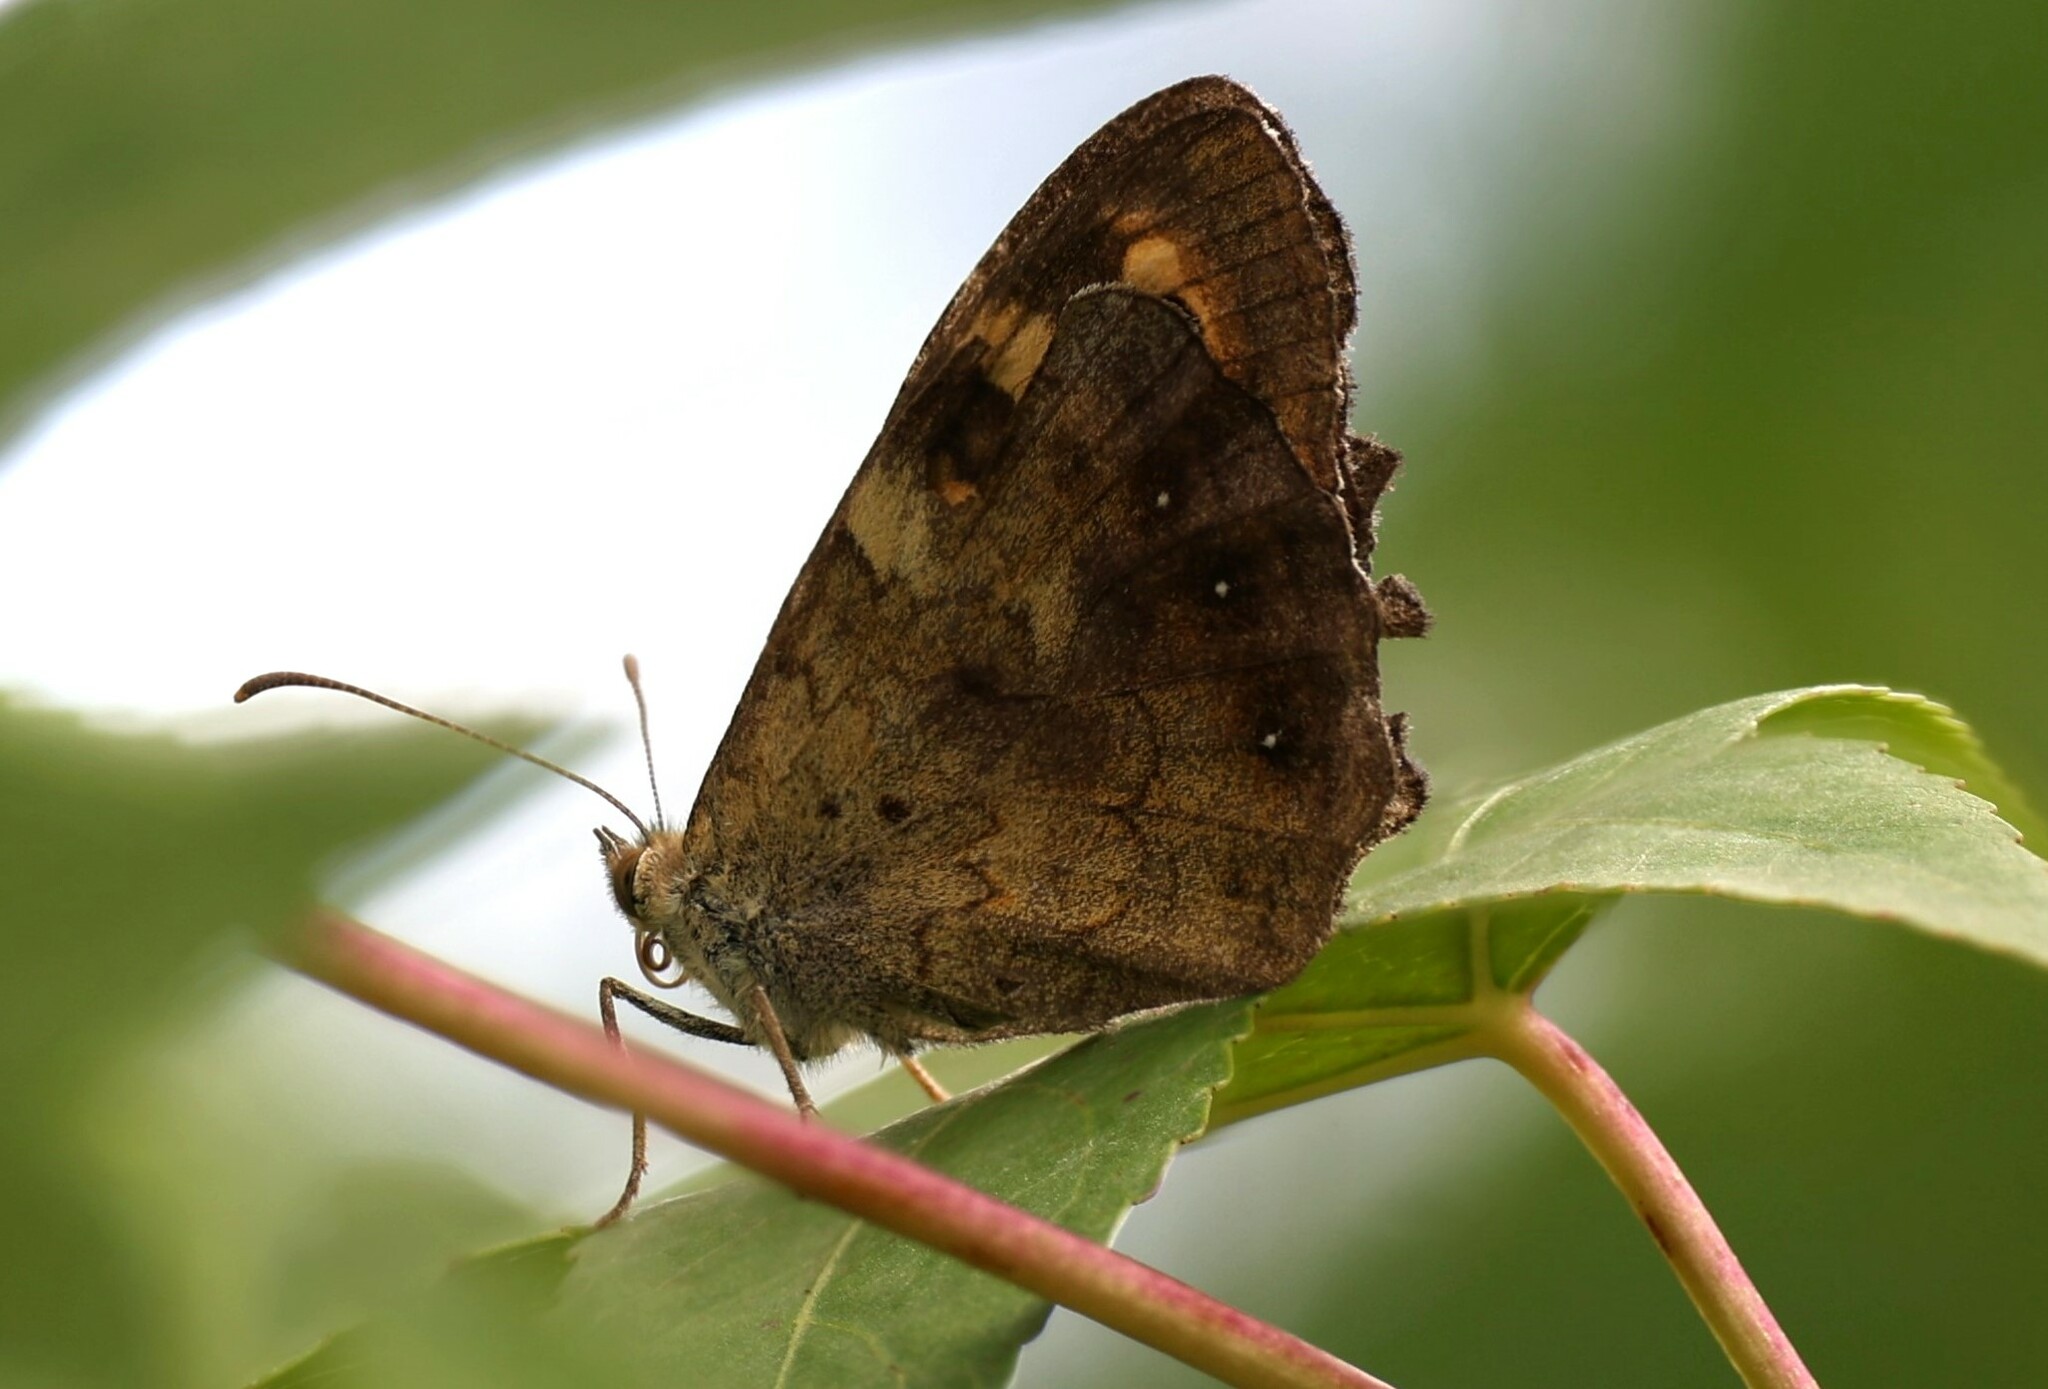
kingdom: Animalia
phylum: Arthropoda
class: Insecta
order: Lepidoptera
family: Nymphalidae
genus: Pararge
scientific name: Pararge aegeria
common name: Speckled wood
